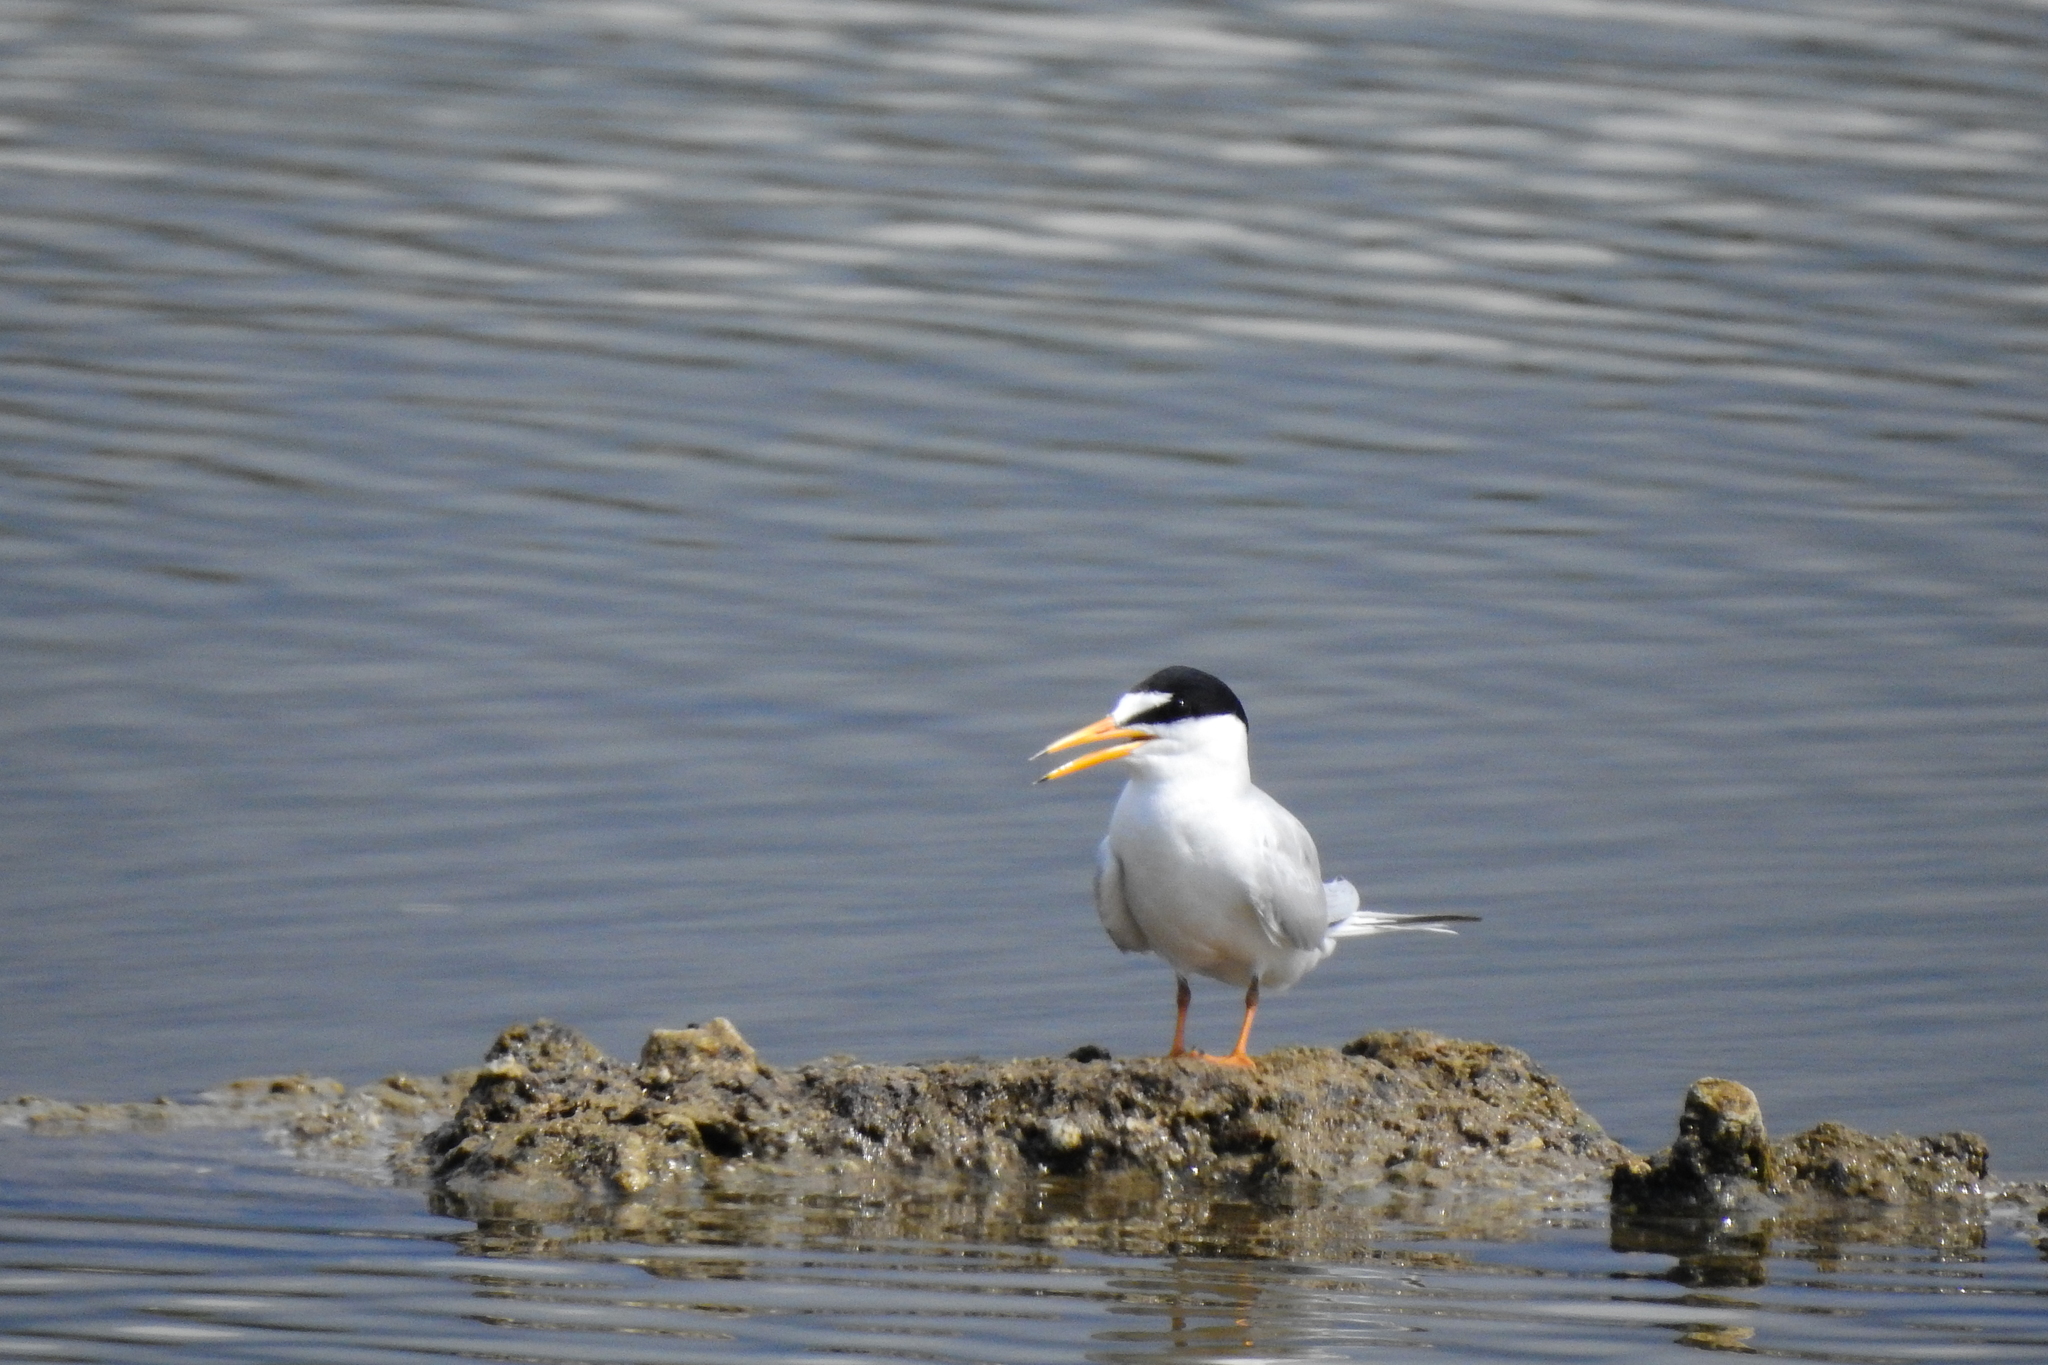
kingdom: Animalia
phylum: Chordata
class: Aves
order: Charadriiformes
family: Laridae
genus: Sternula
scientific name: Sternula albifrons
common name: Little tern
